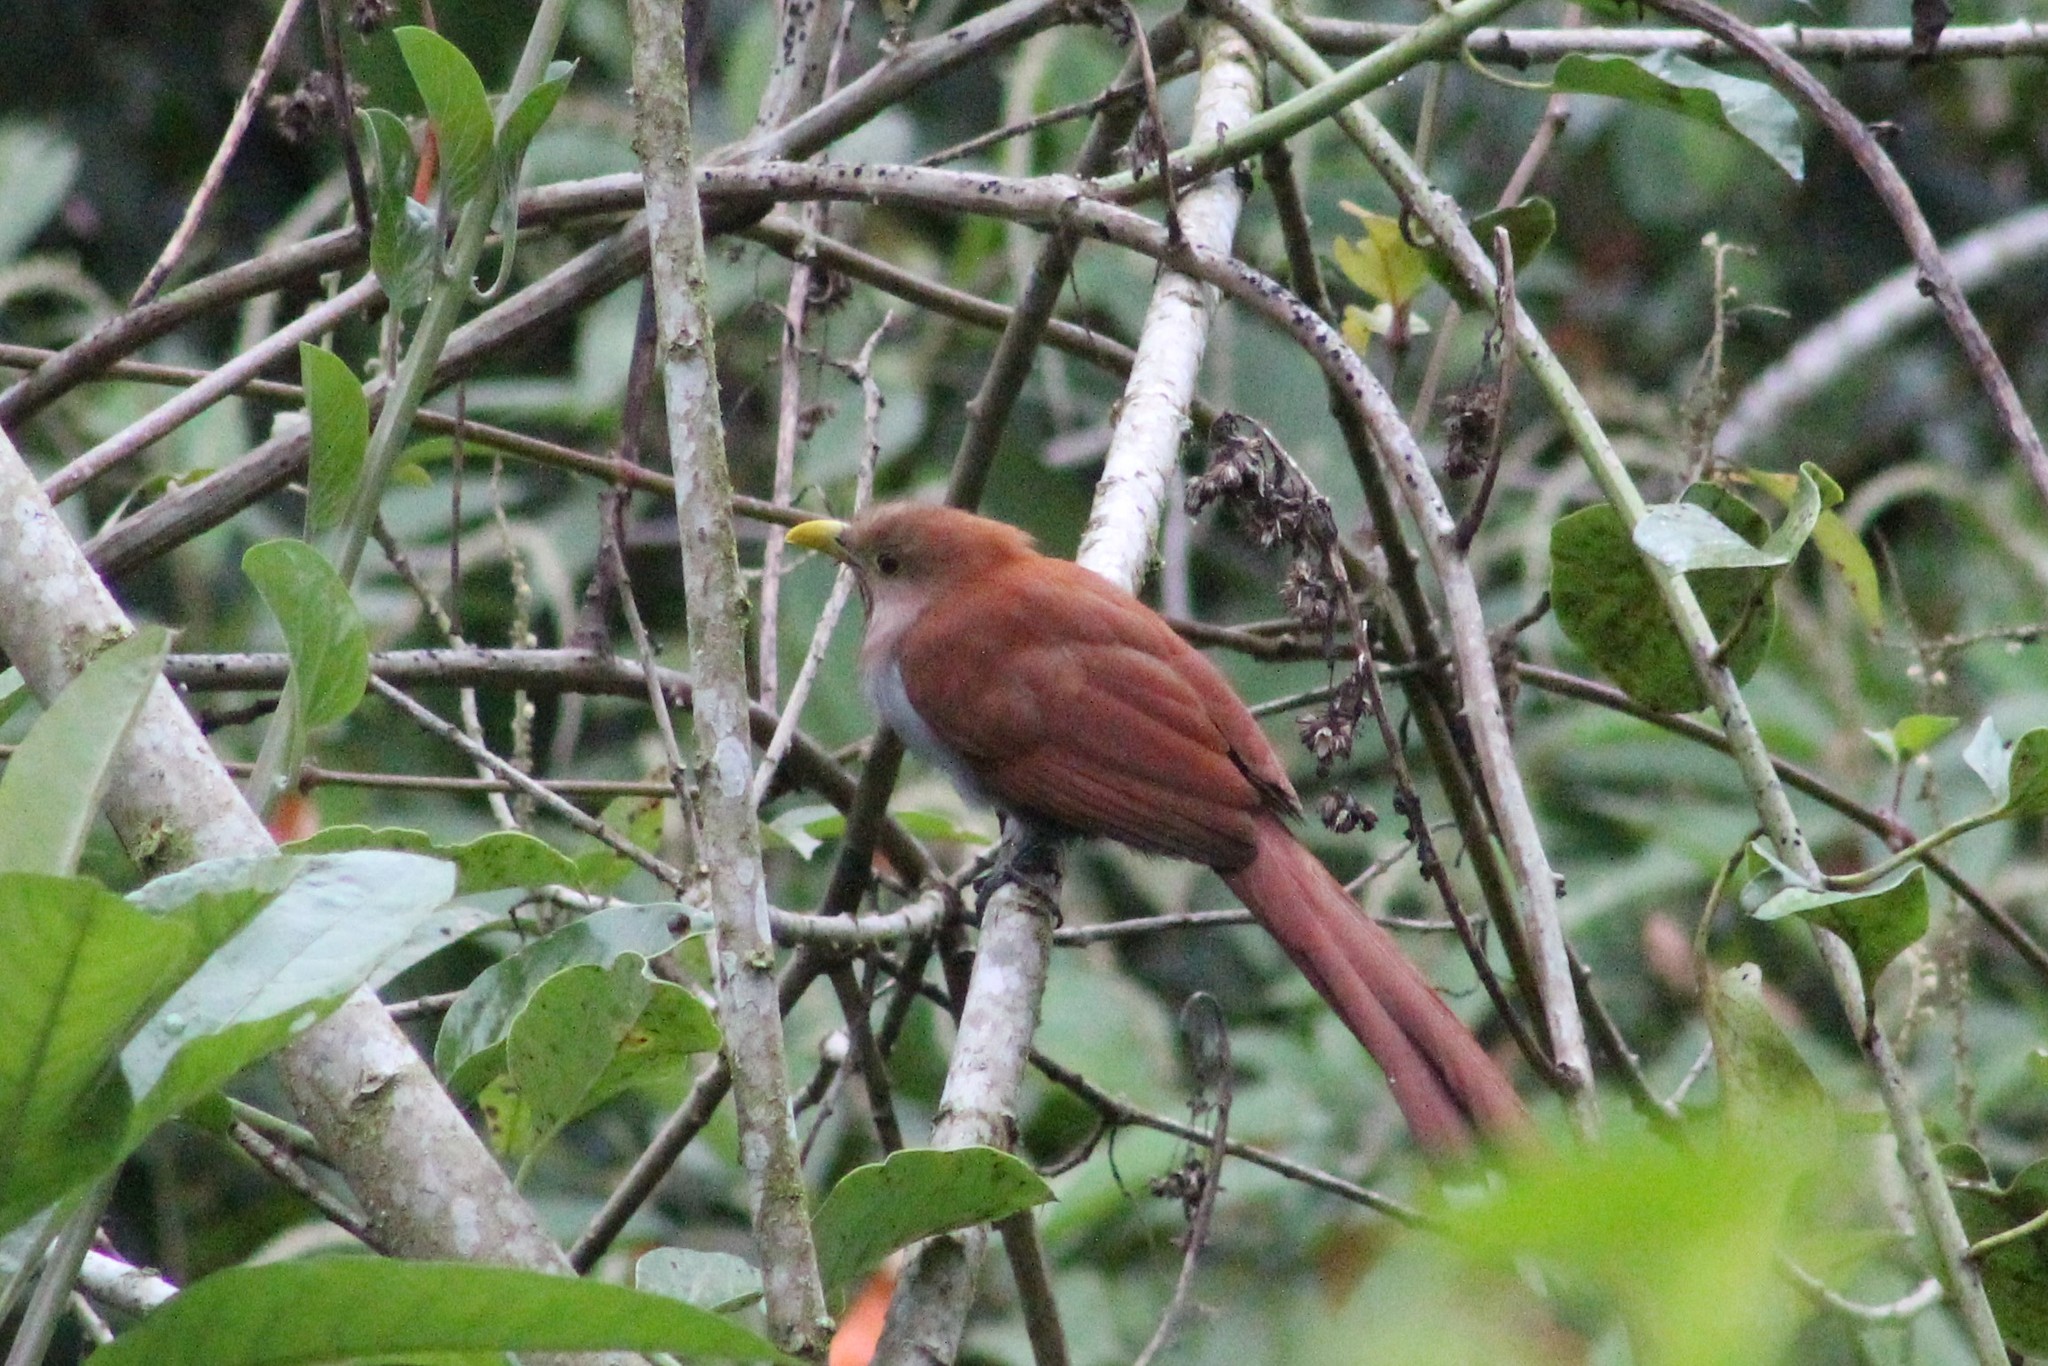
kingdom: Animalia
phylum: Chordata
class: Aves
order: Cuculiformes
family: Cuculidae
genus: Piaya
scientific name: Piaya cayana
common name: Squirrel cuckoo
